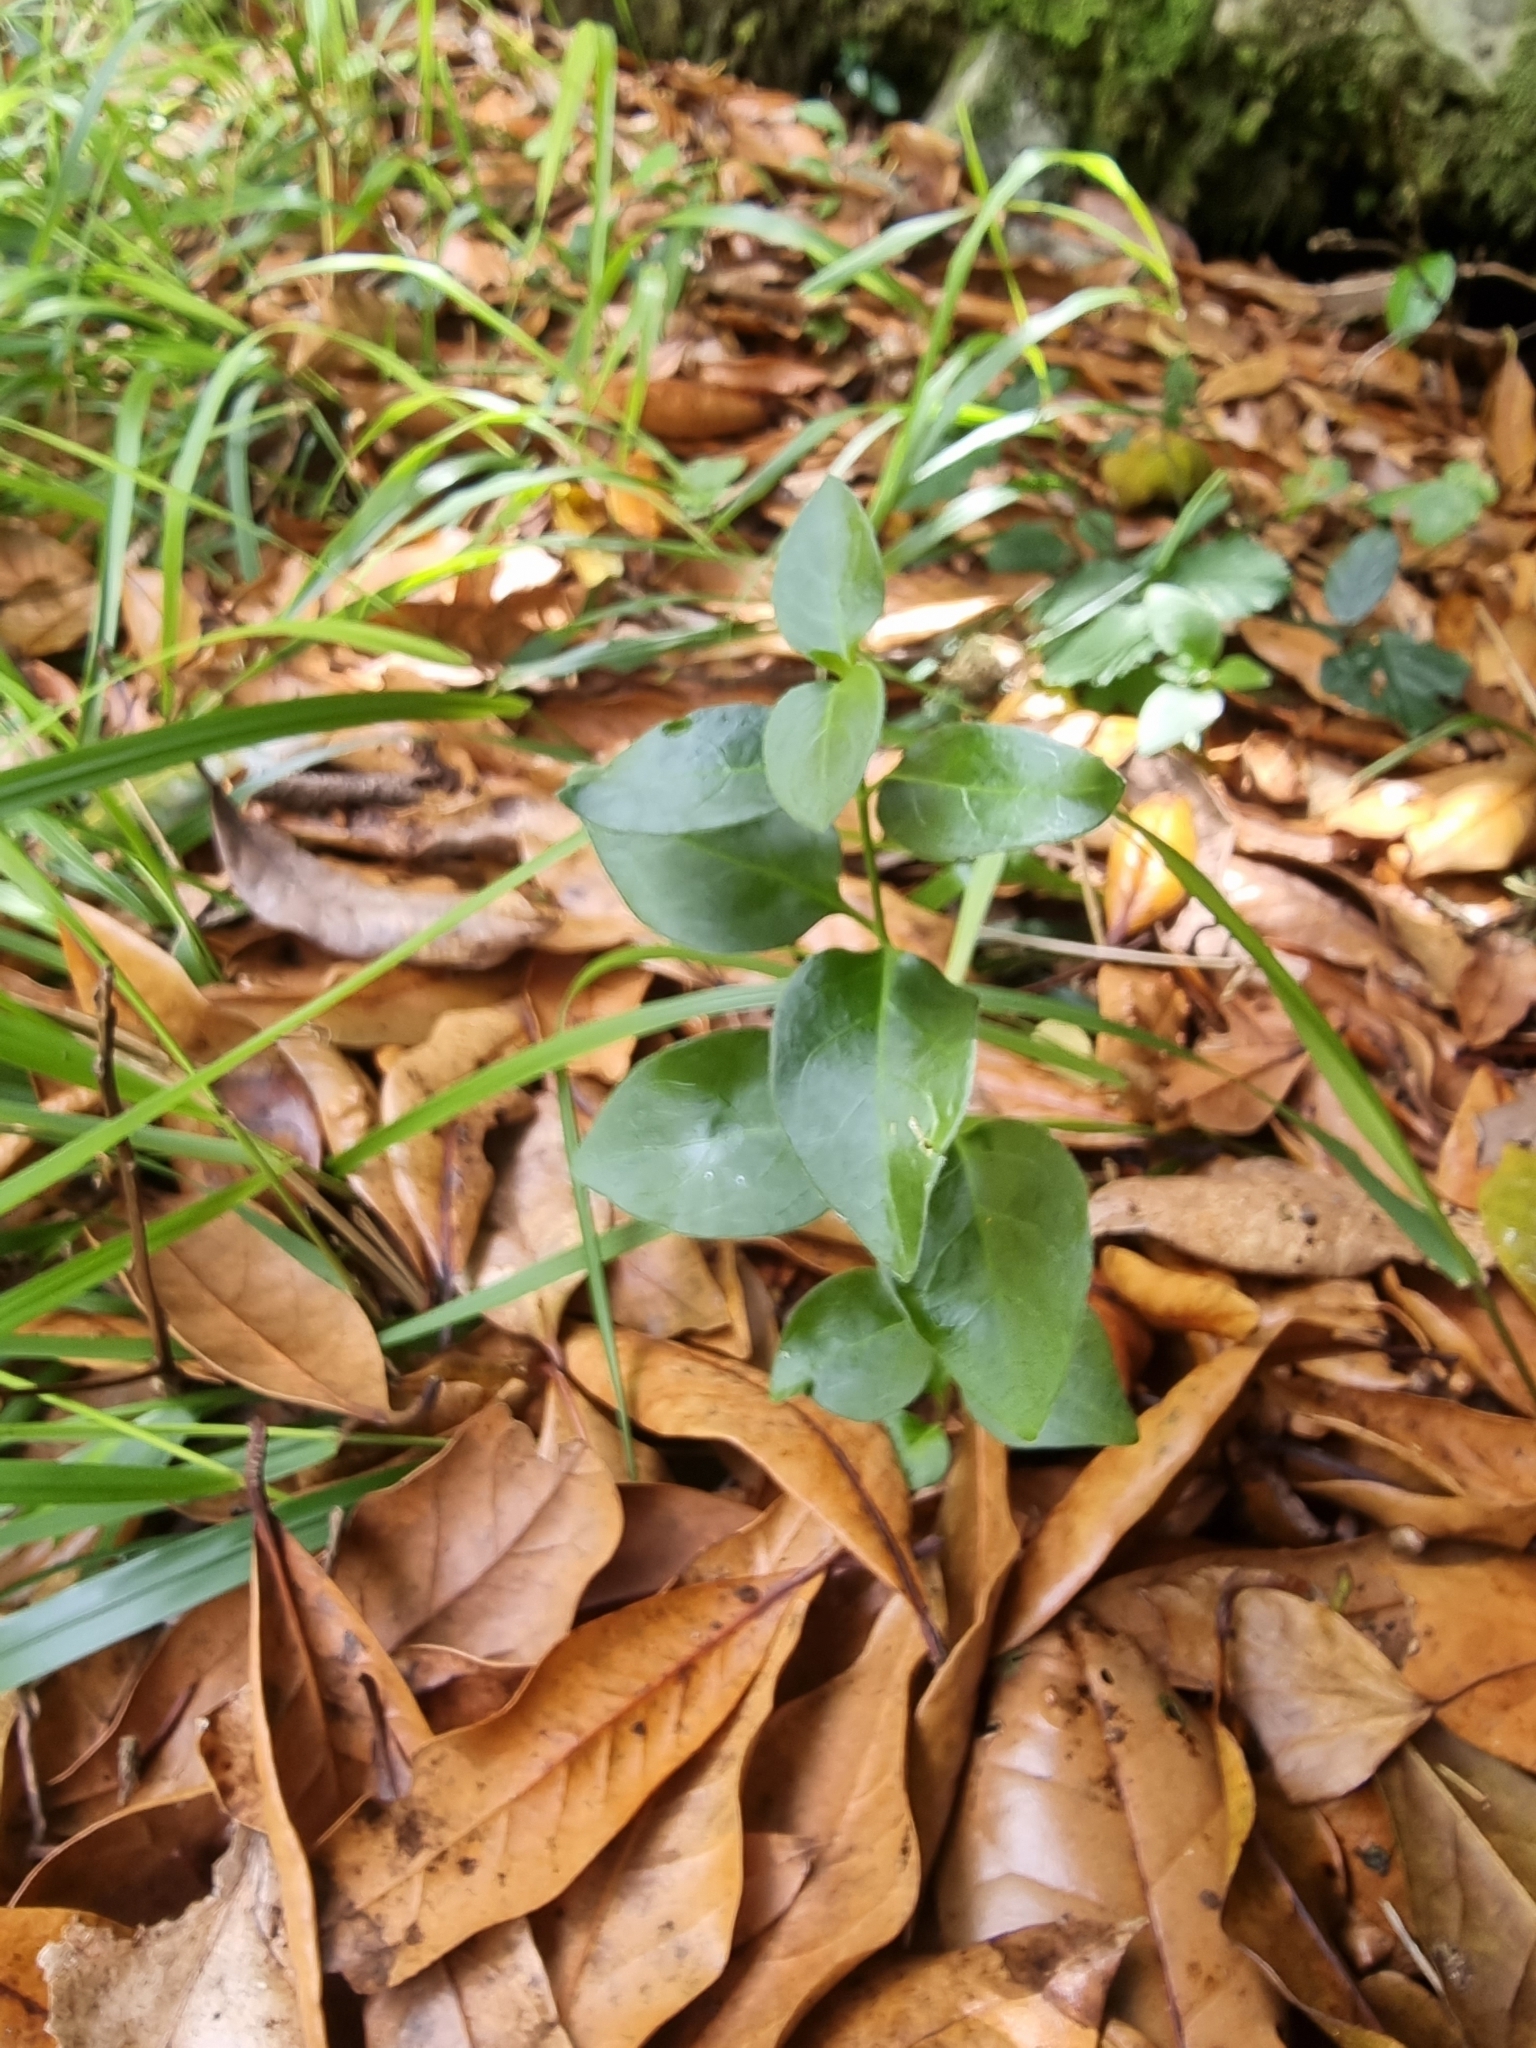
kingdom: Plantae
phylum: Tracheophyta
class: Magnoliopsida
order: Gentianales
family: Apocynaceae
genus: Vinca
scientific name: Vinca major
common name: Greater periwinkle
